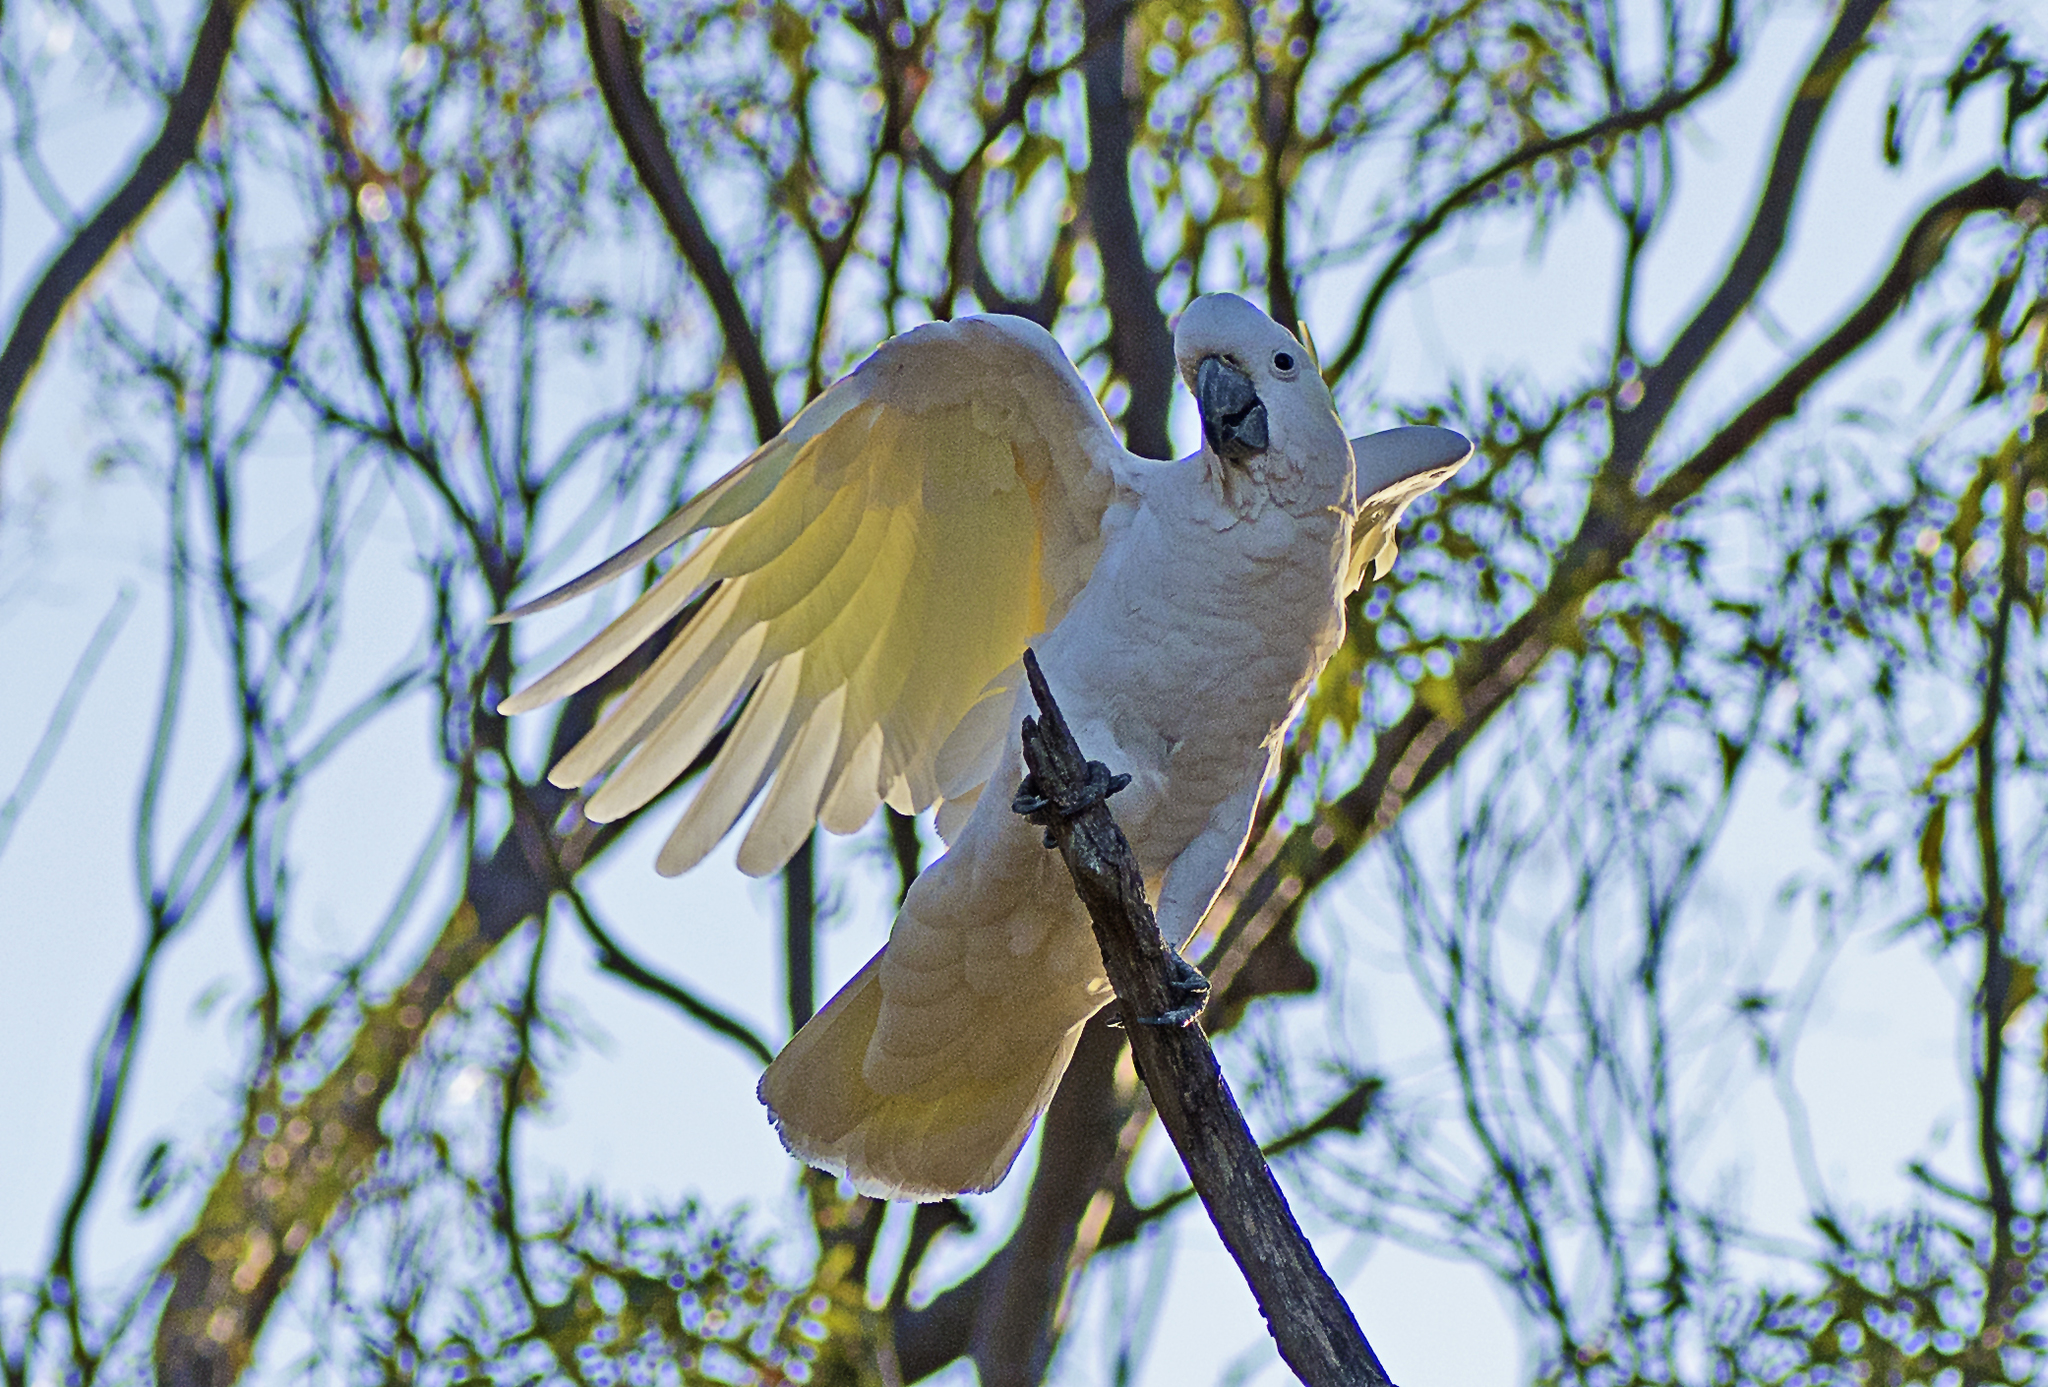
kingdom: Animalia
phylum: Chordata
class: Aves
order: Psittaciformes
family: Psittacidae
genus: Cacatua
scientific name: Cacatua galerita
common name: Sulphur-crested cockatoo
